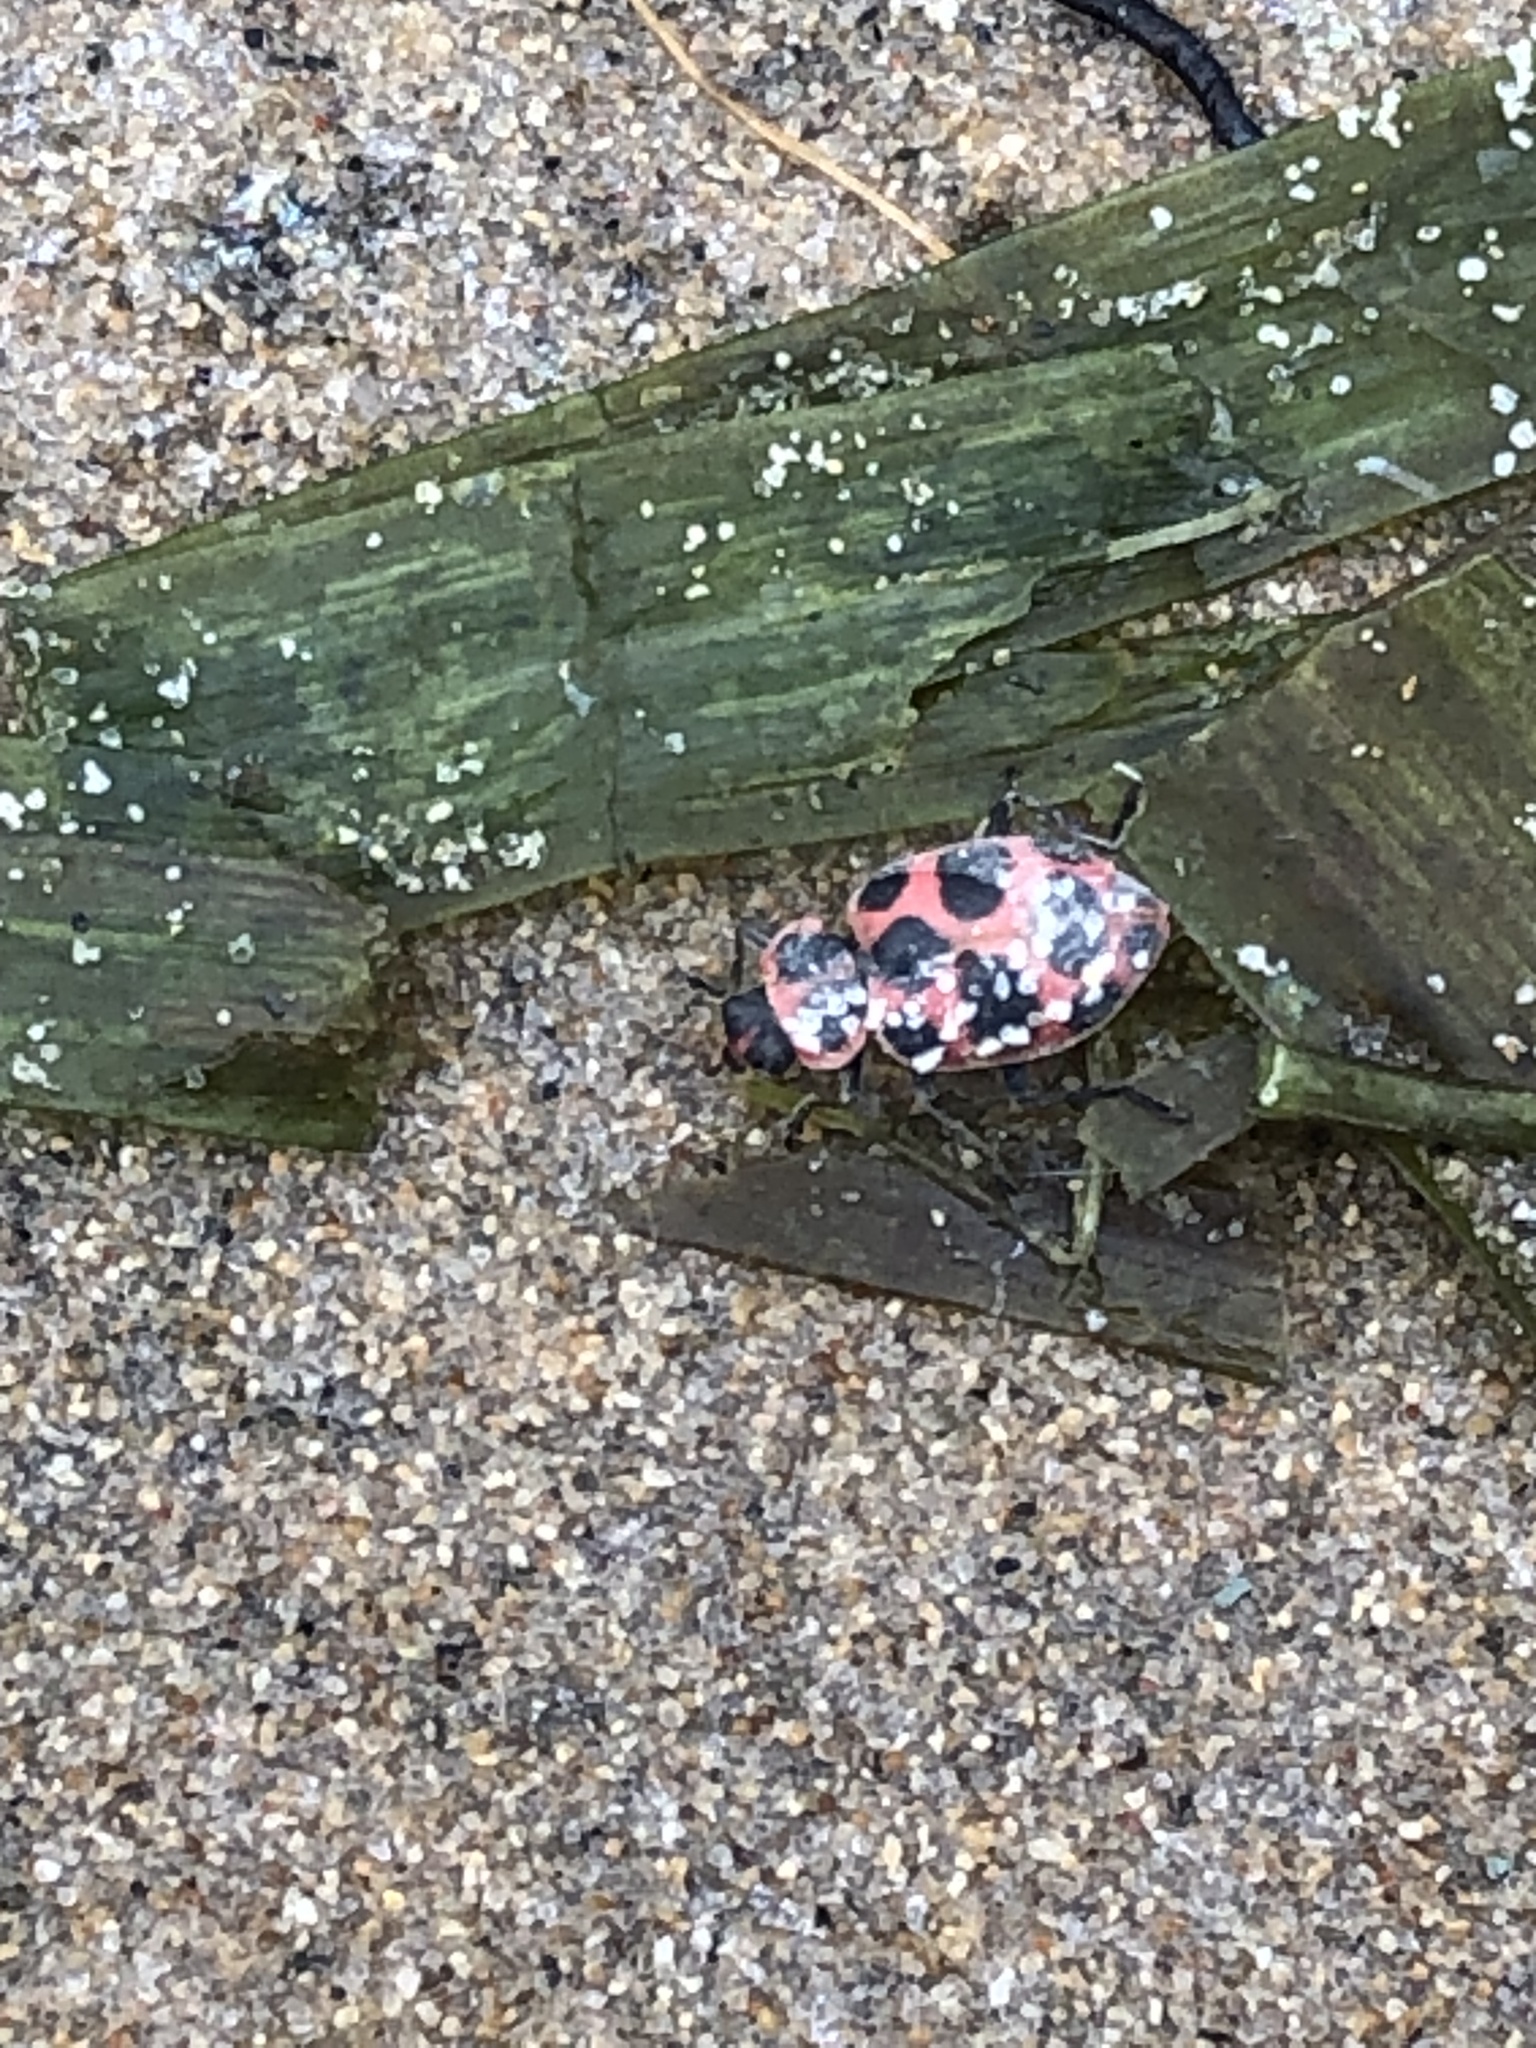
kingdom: Animalia
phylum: Arthropoda
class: Insecta
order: Coleoptera
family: Coccinellidae
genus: Coleomegilla
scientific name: Coleomegilla maculata
